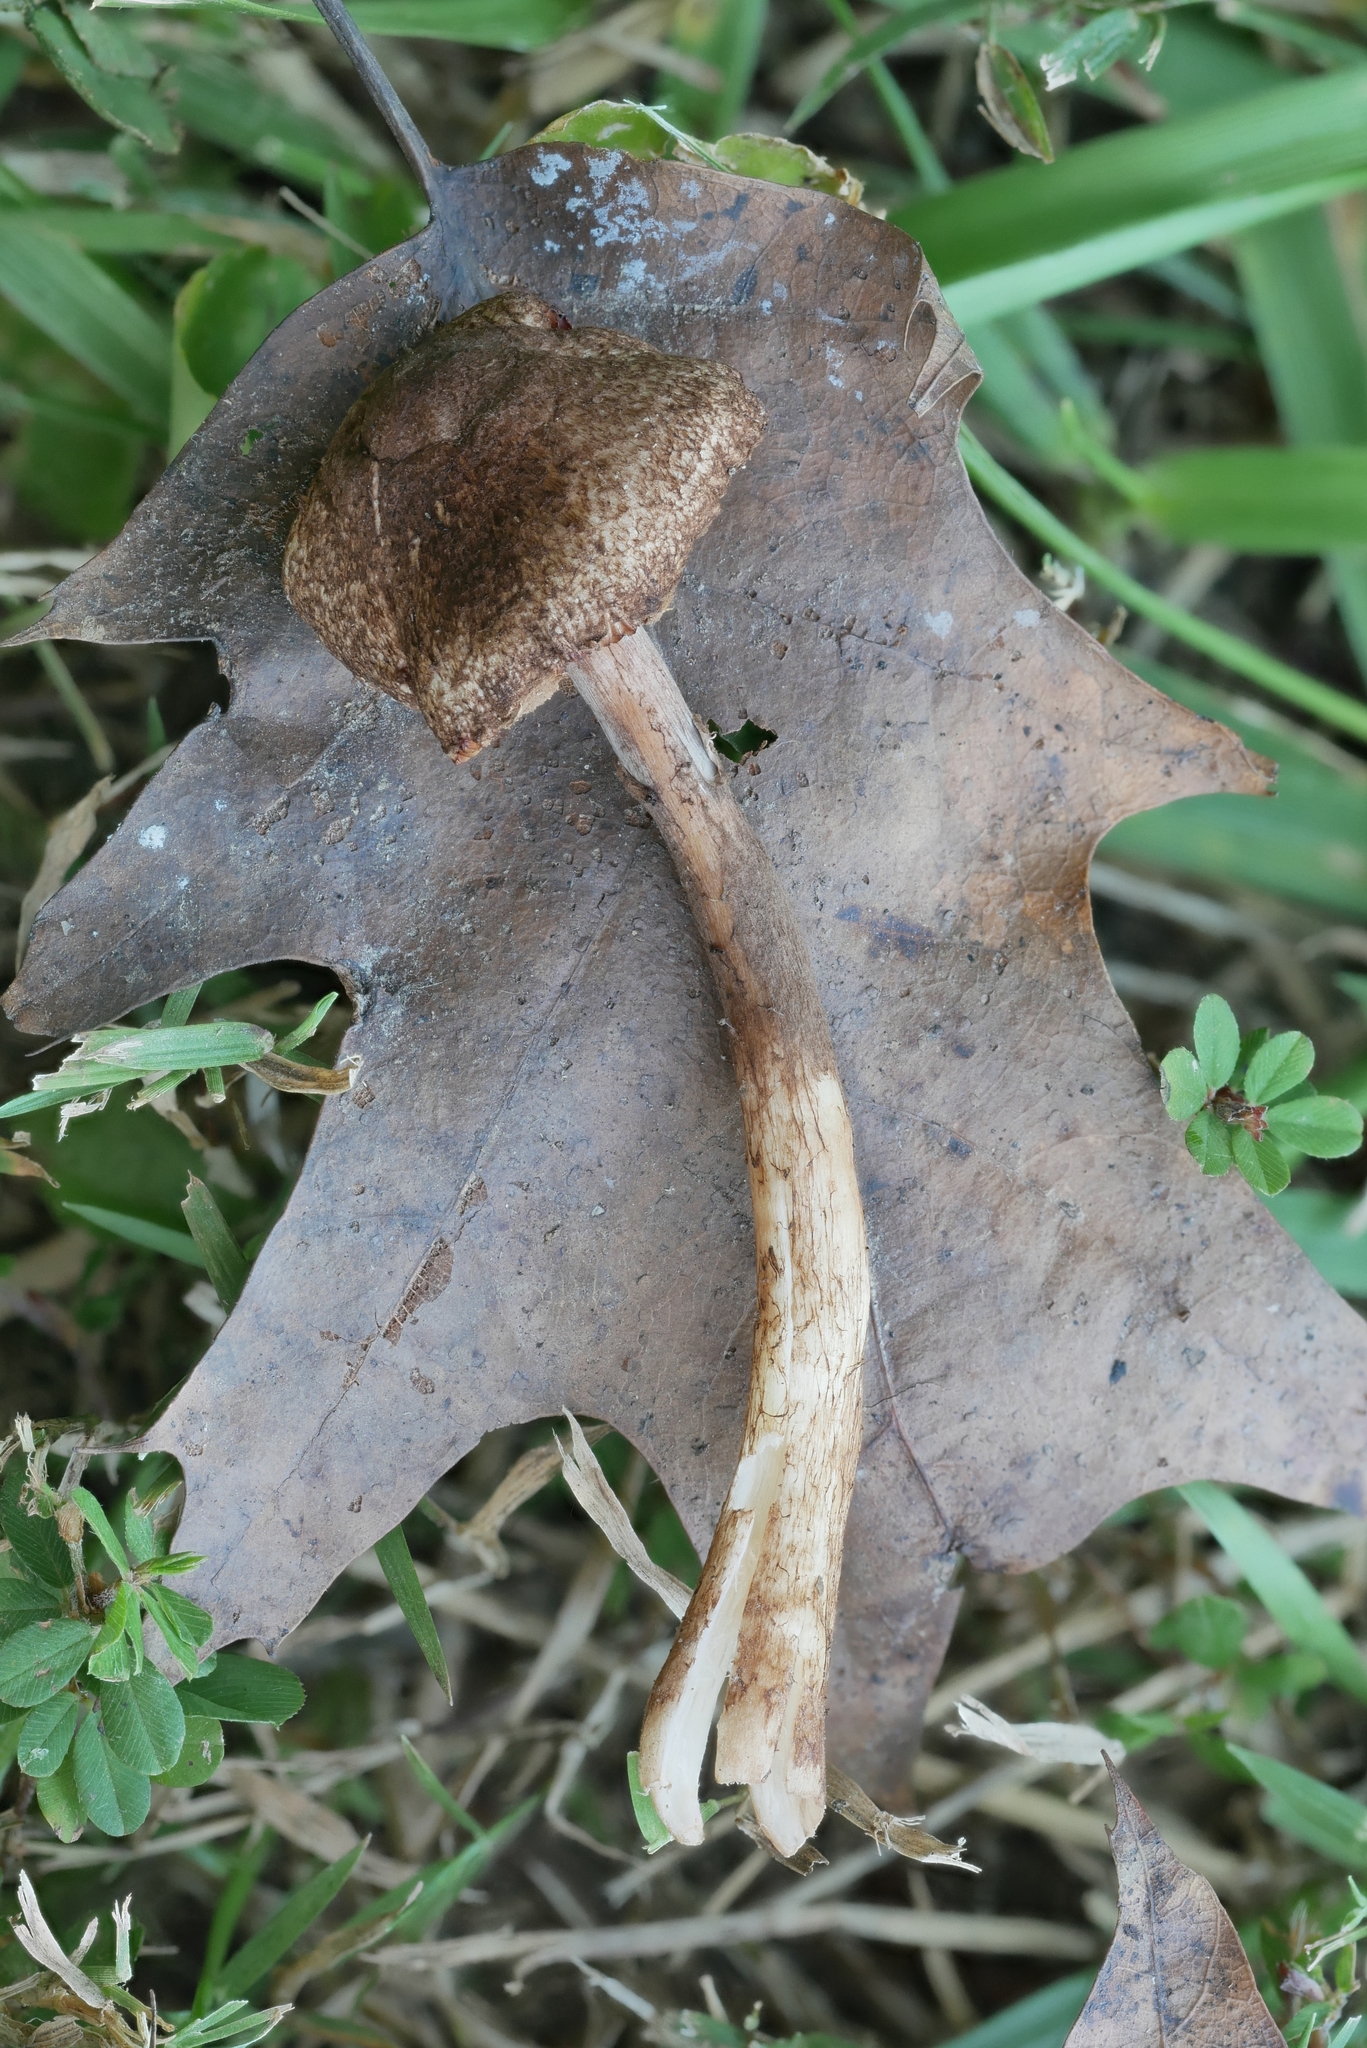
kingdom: Fungi
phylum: Basidiomycota
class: Agaricomycetes
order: Agaricales
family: Agaricaceae
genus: Leucocoprinus
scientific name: Leucocoprinus brunnescens
